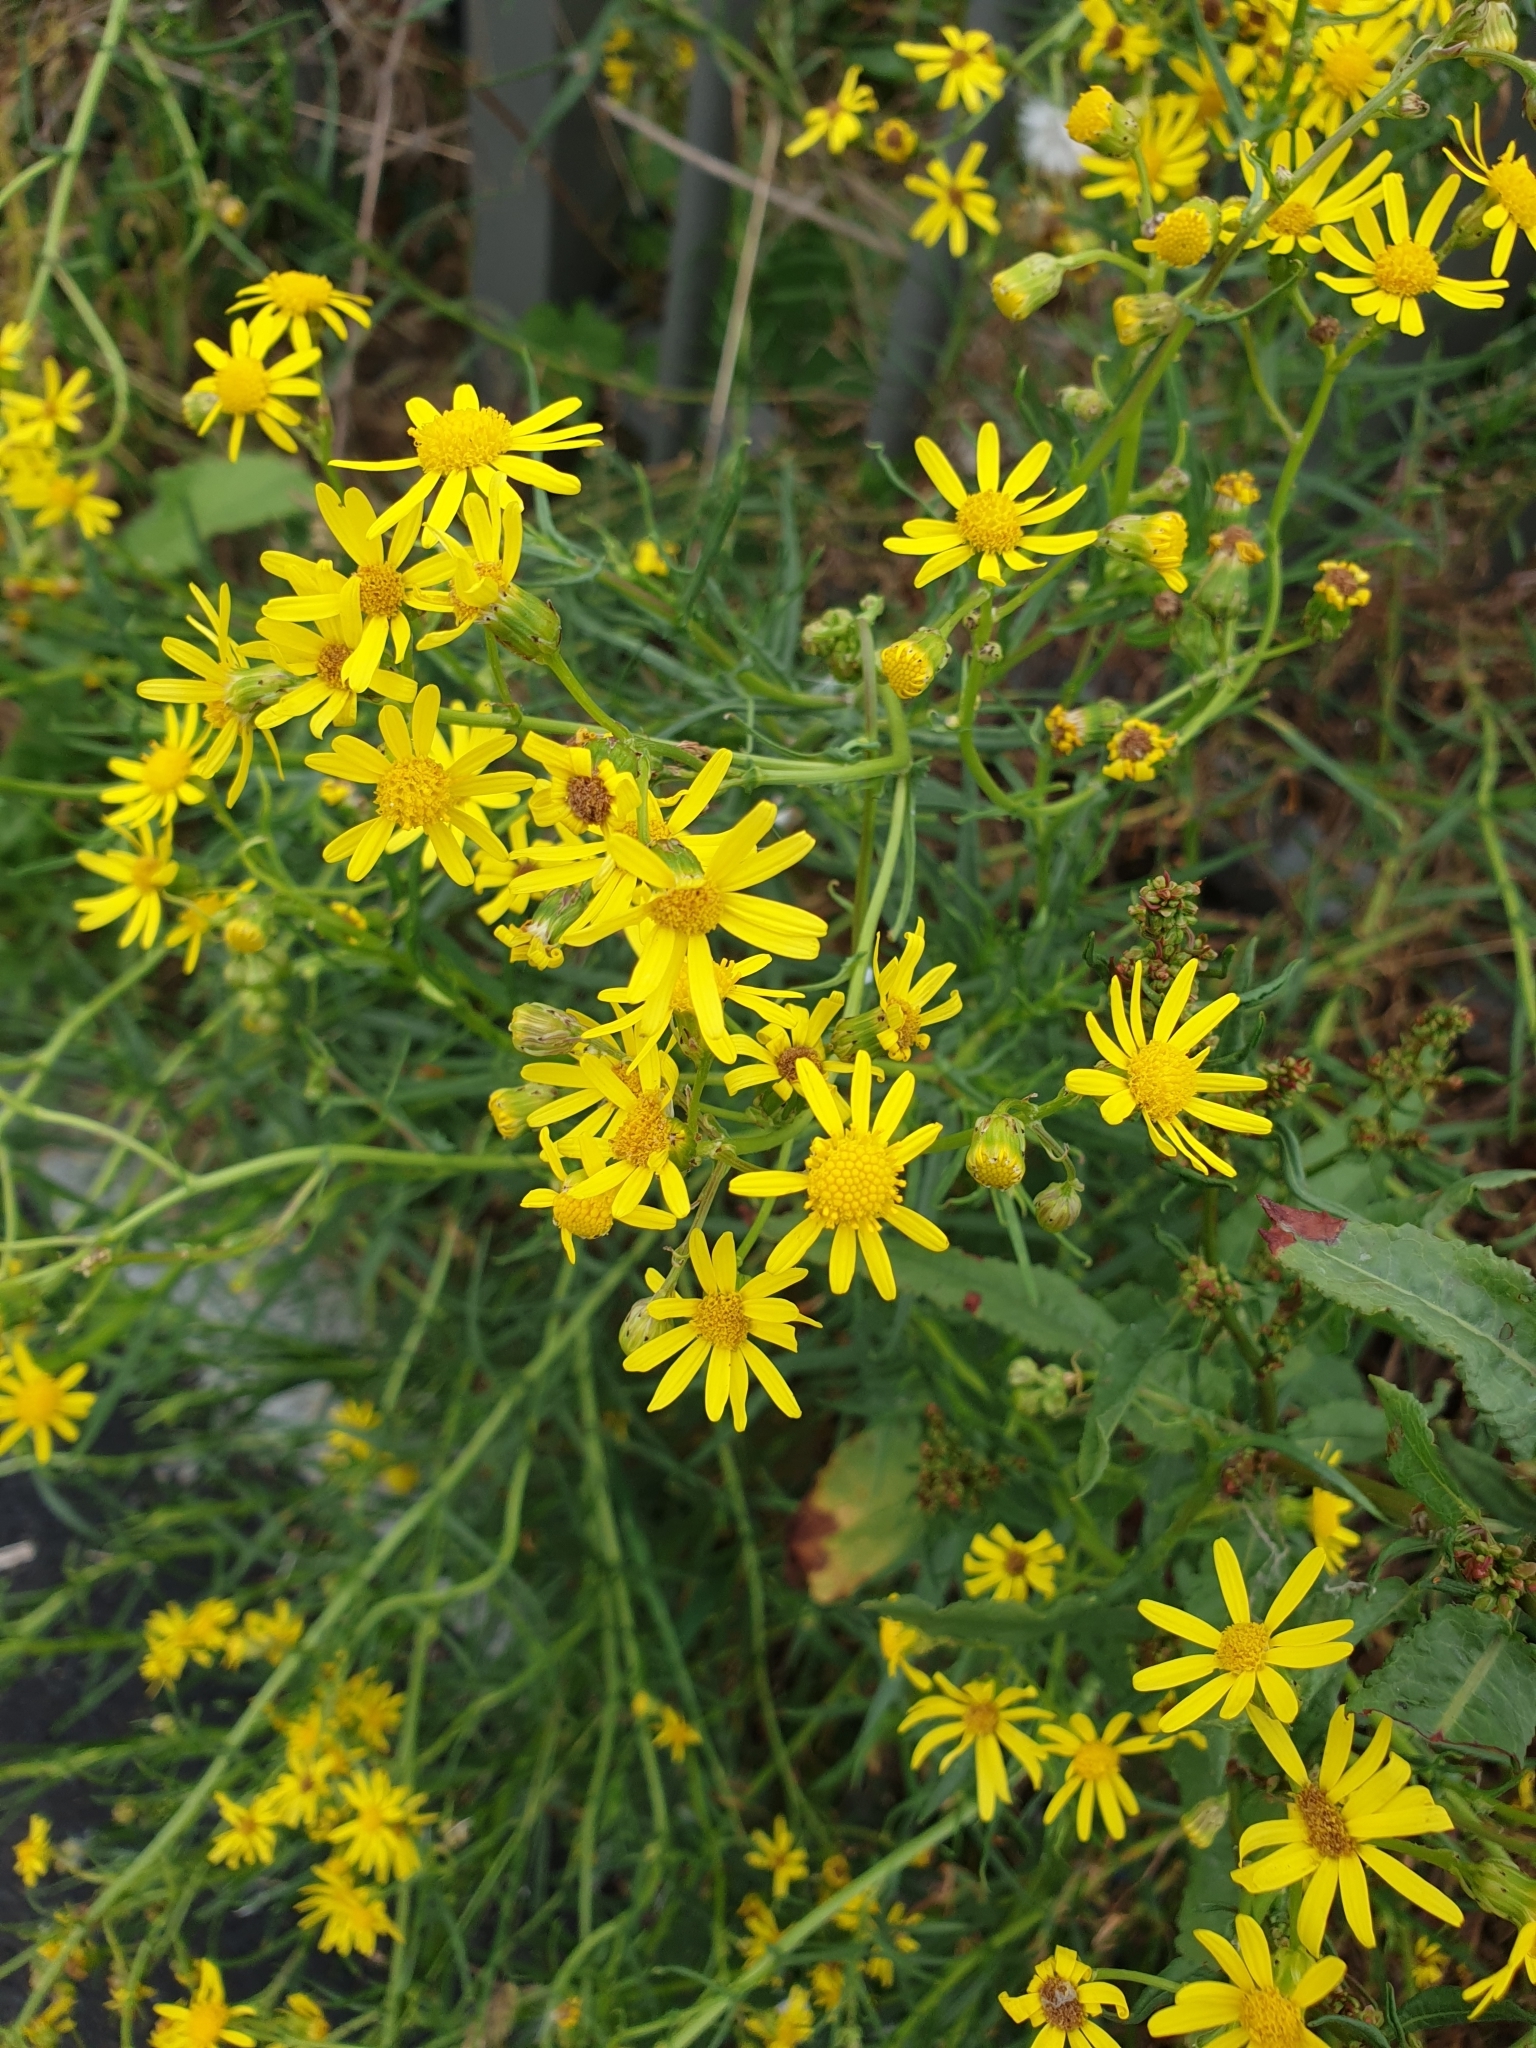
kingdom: Plantae
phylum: Tracheophyta
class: Magnoliopsida
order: Asterales
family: Asteraceae
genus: Jacobaea
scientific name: Jacobaea vulgaris
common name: Stinking willie
